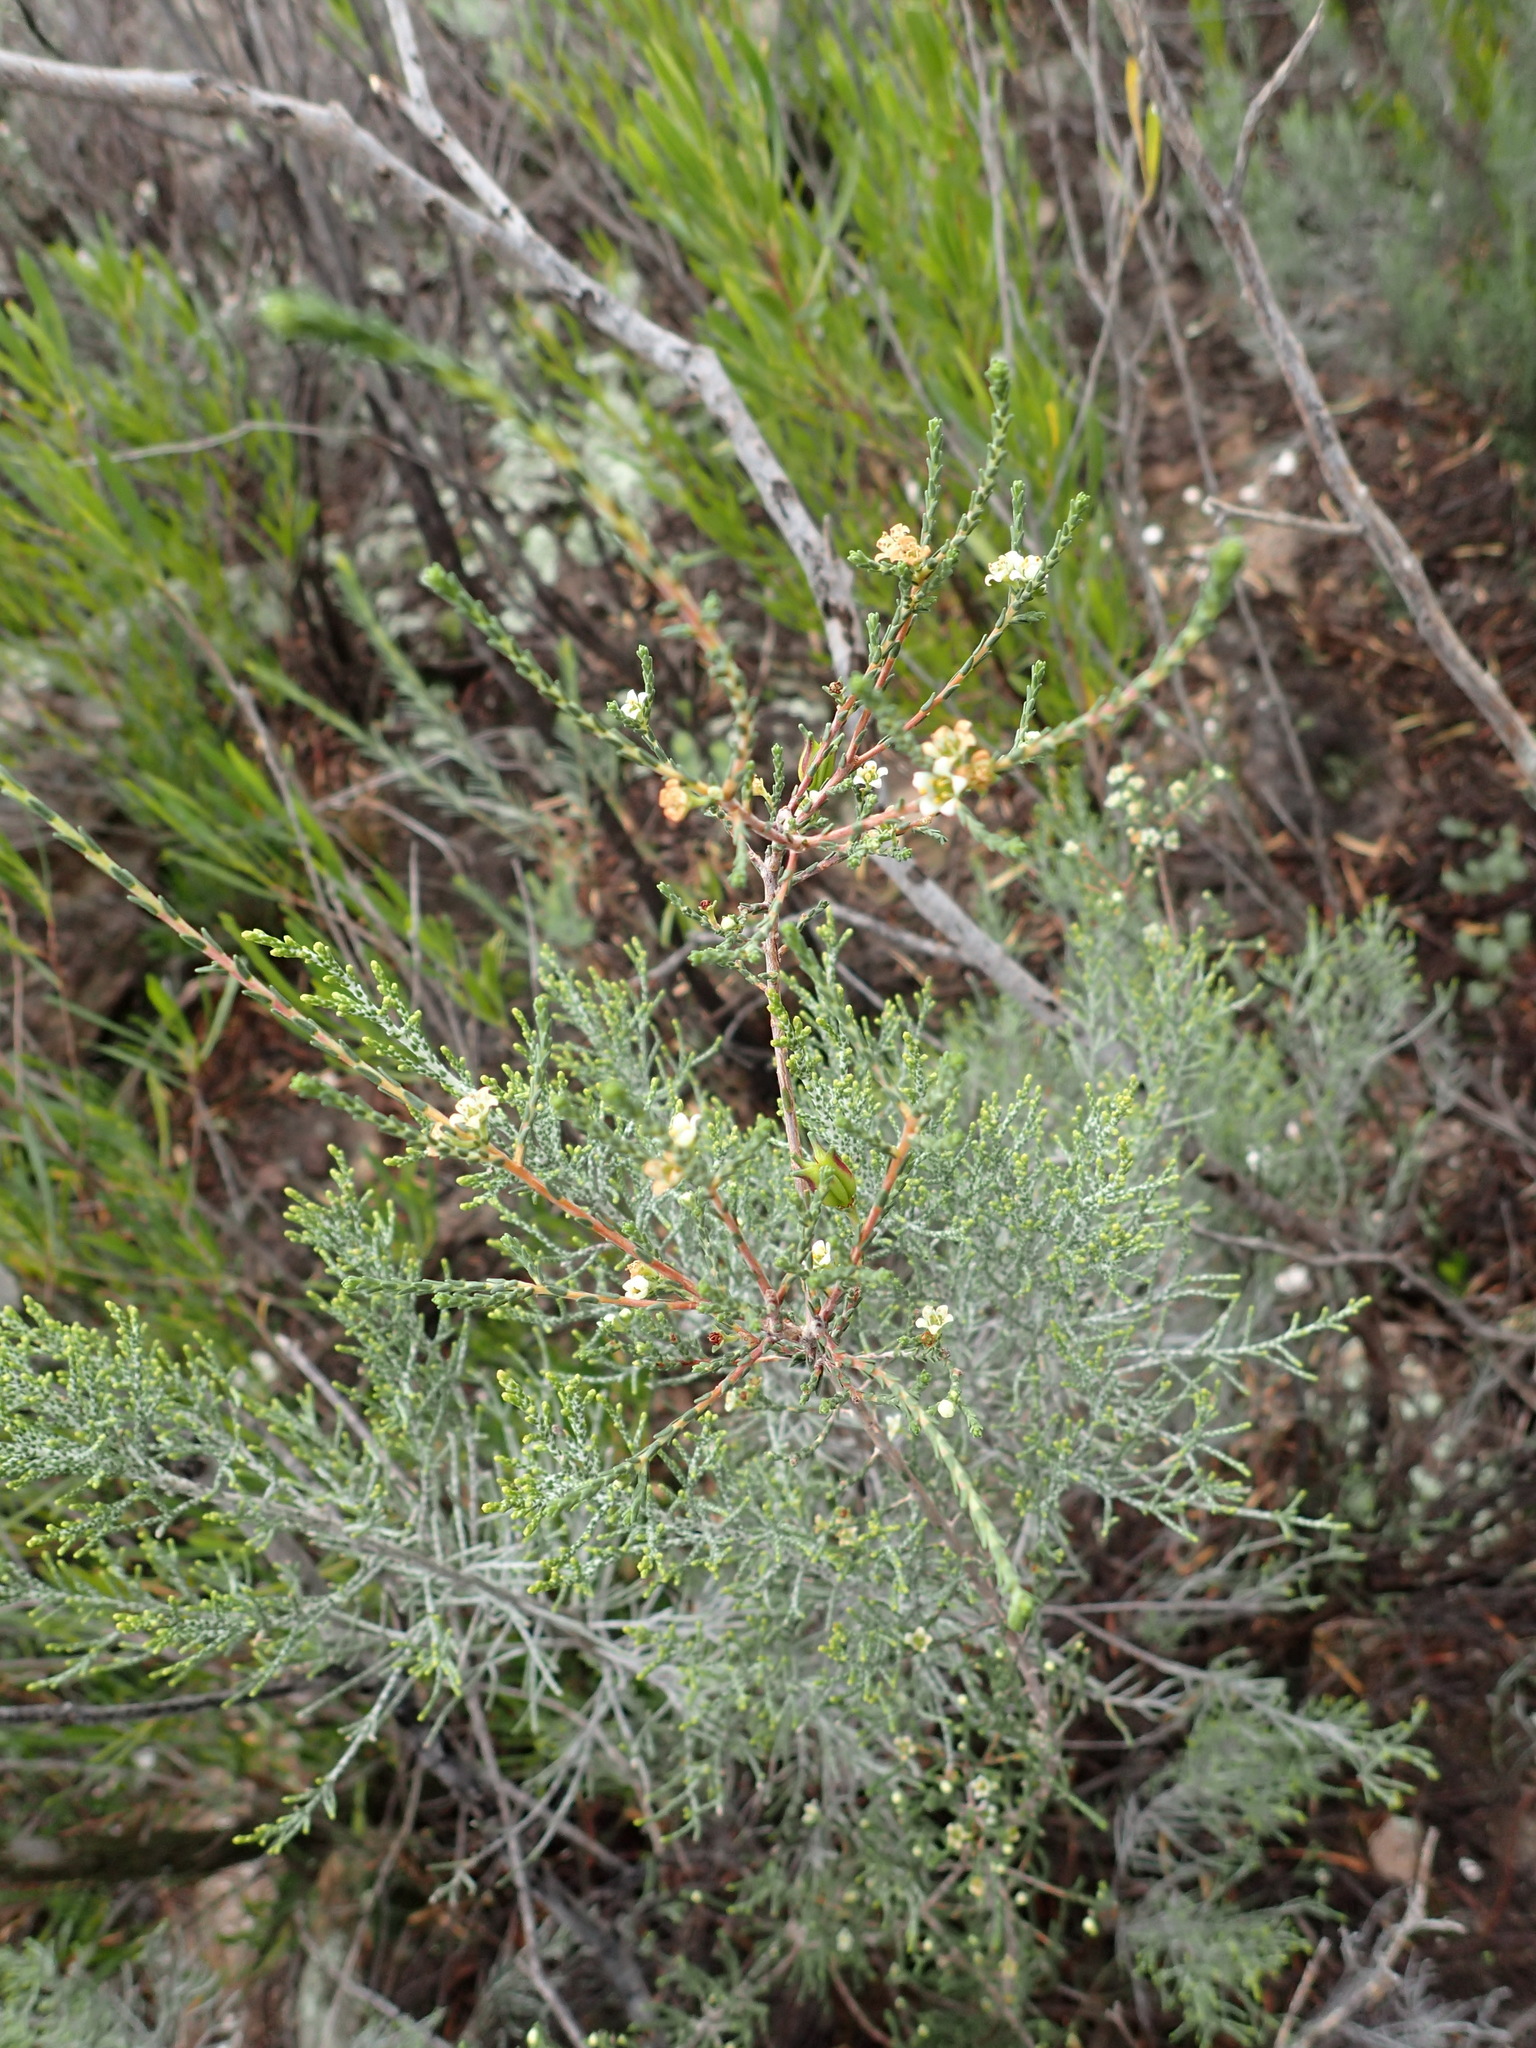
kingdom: Plantae
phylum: Tracheophyta
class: Magnoliopsida
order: Sapindales
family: Rutaceae
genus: Diosma
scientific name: Diosma prama
